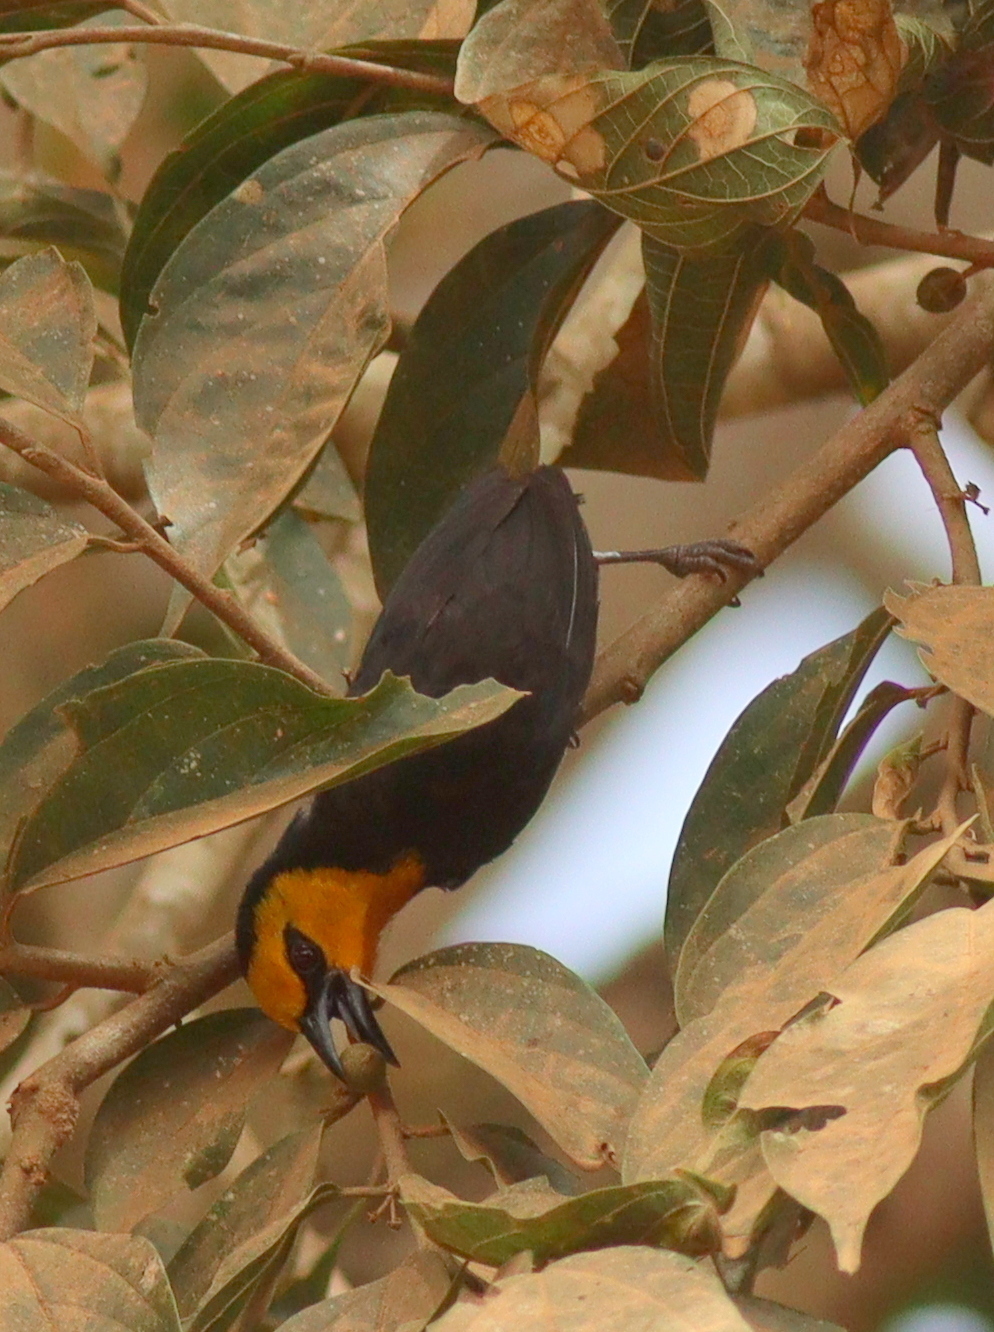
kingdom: Animalia
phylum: Chordata
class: Aves
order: Passeriformes
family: Ploceidae
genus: Ploceus
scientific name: Ploceus melanogaster
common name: Black-billed weaver
